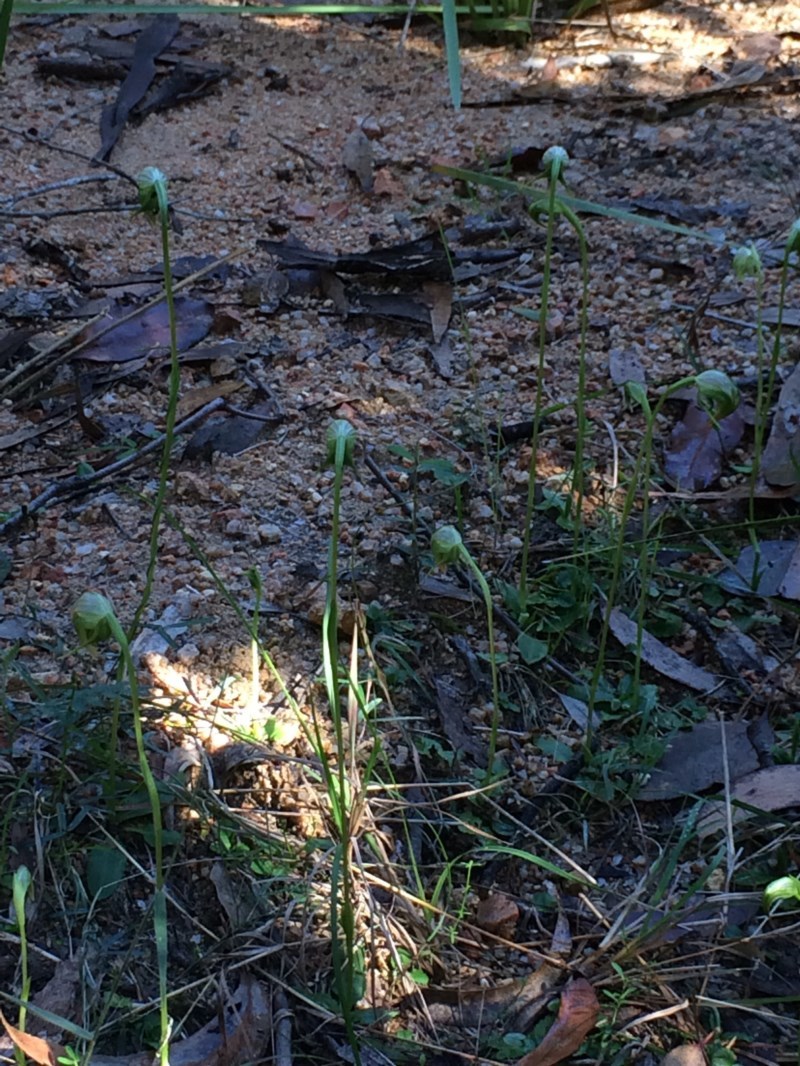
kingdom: Plantae
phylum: Tracheophyta
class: Liliopsida
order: Asparagales
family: Orchidaceae
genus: Pterostylis
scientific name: Pterostylis nutans
